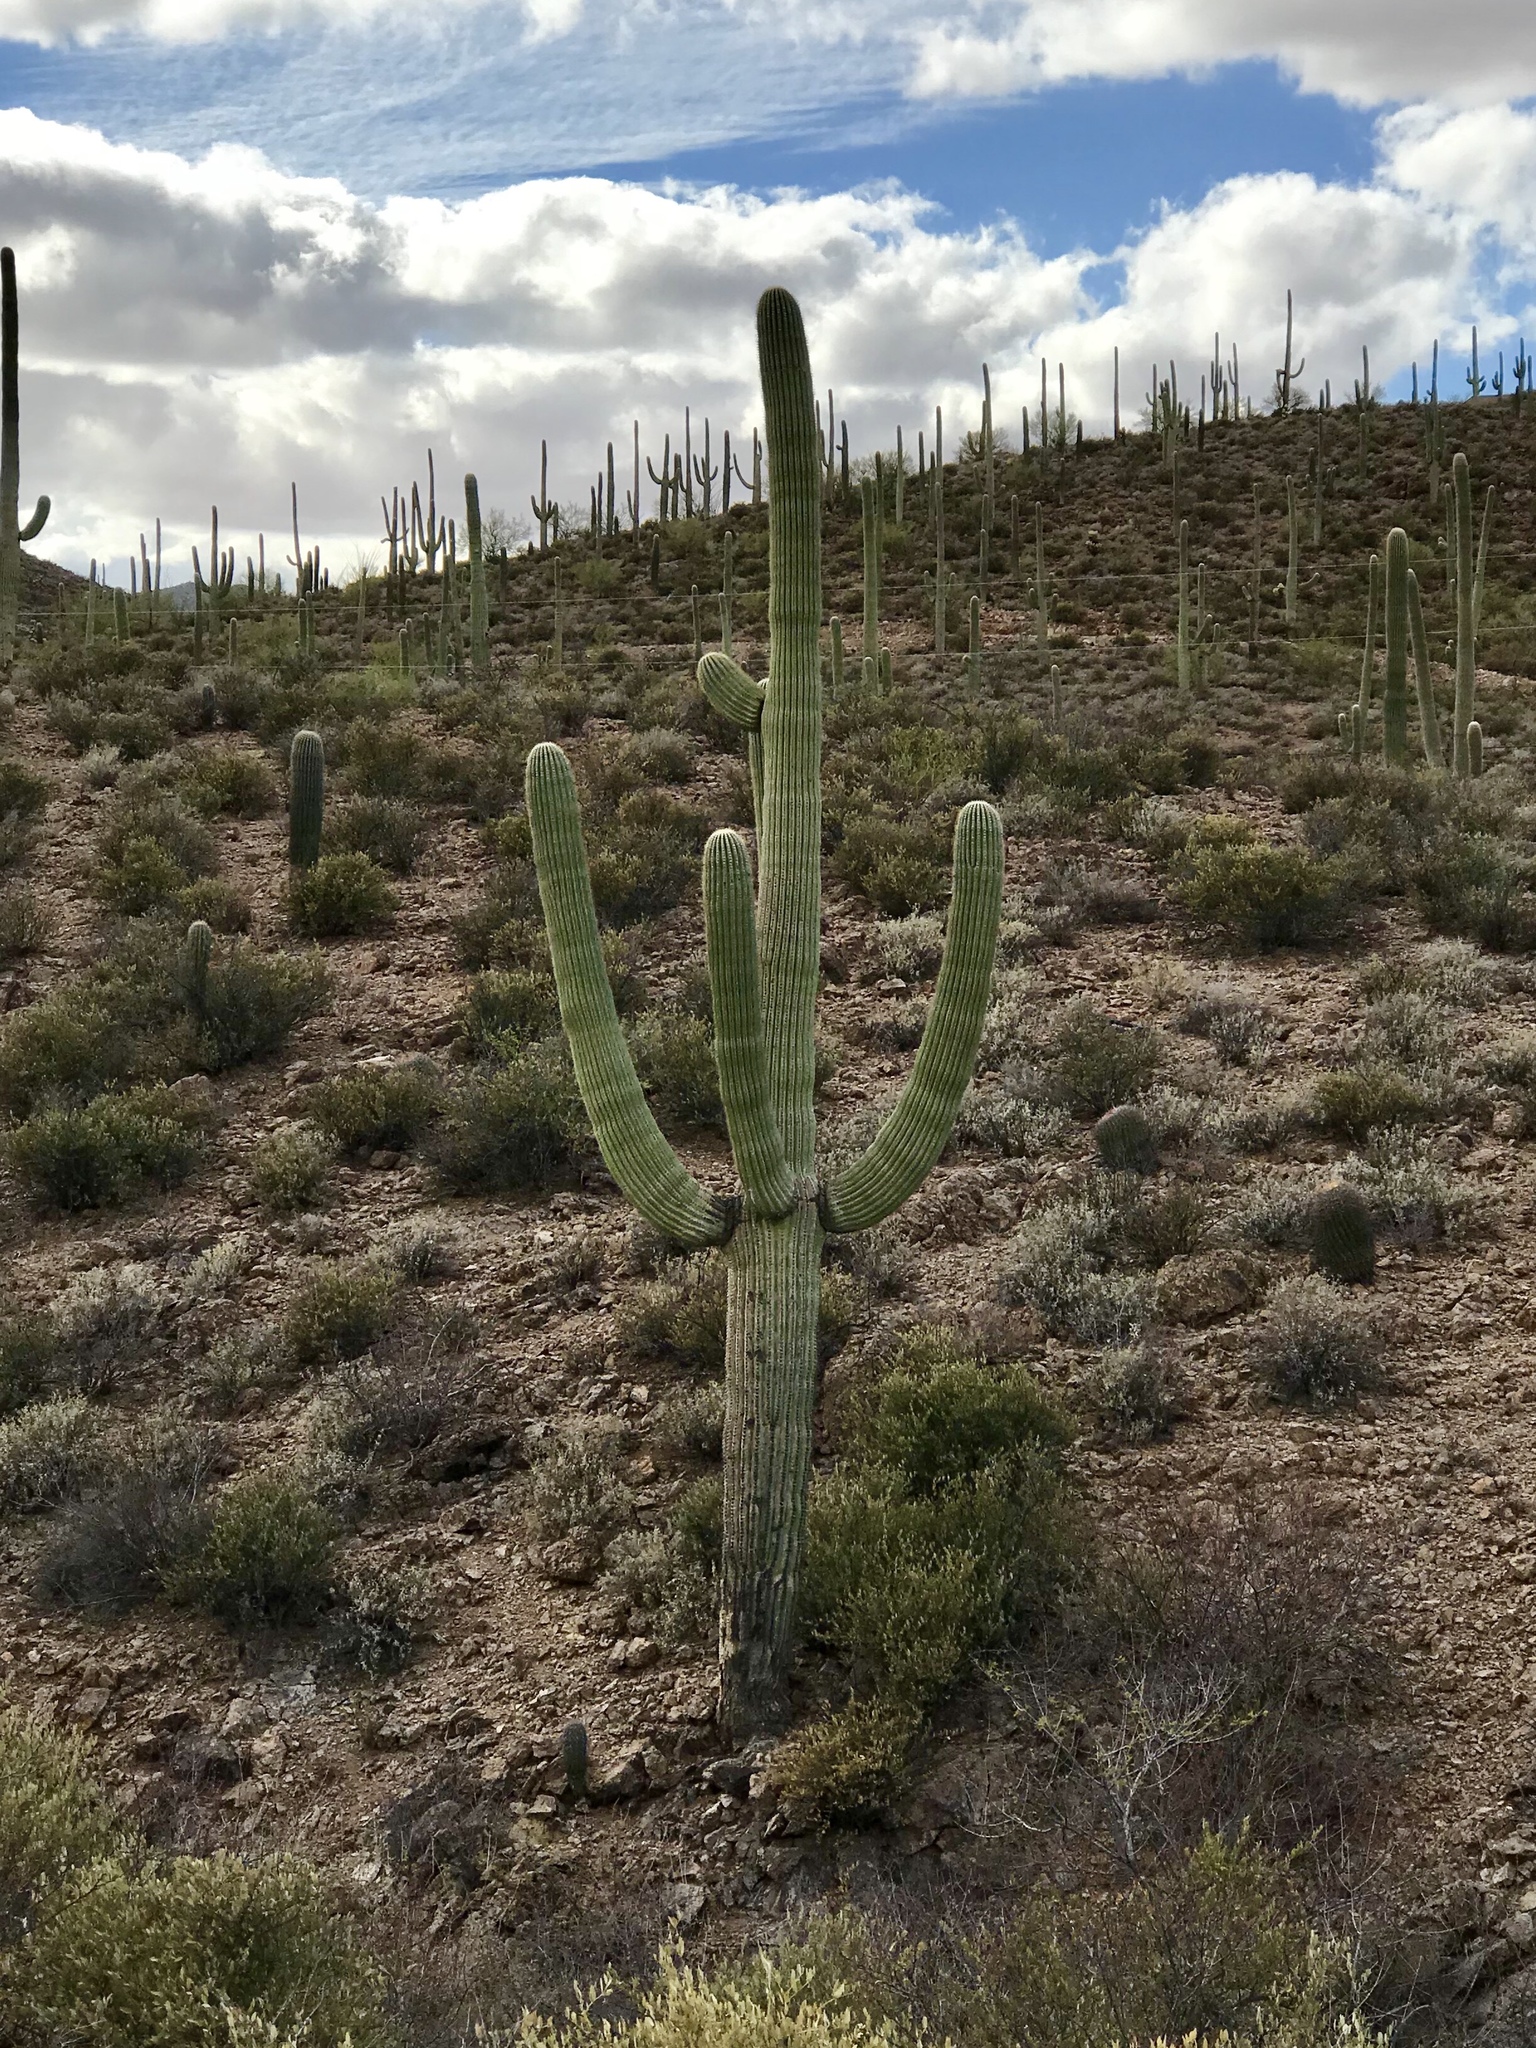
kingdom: Plantae
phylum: Tracheophyta
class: Magnoliopsida
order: Caryophyllales
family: Cactaceae
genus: Carnegiea
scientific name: Carnegiea gigantea
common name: Saguaro
